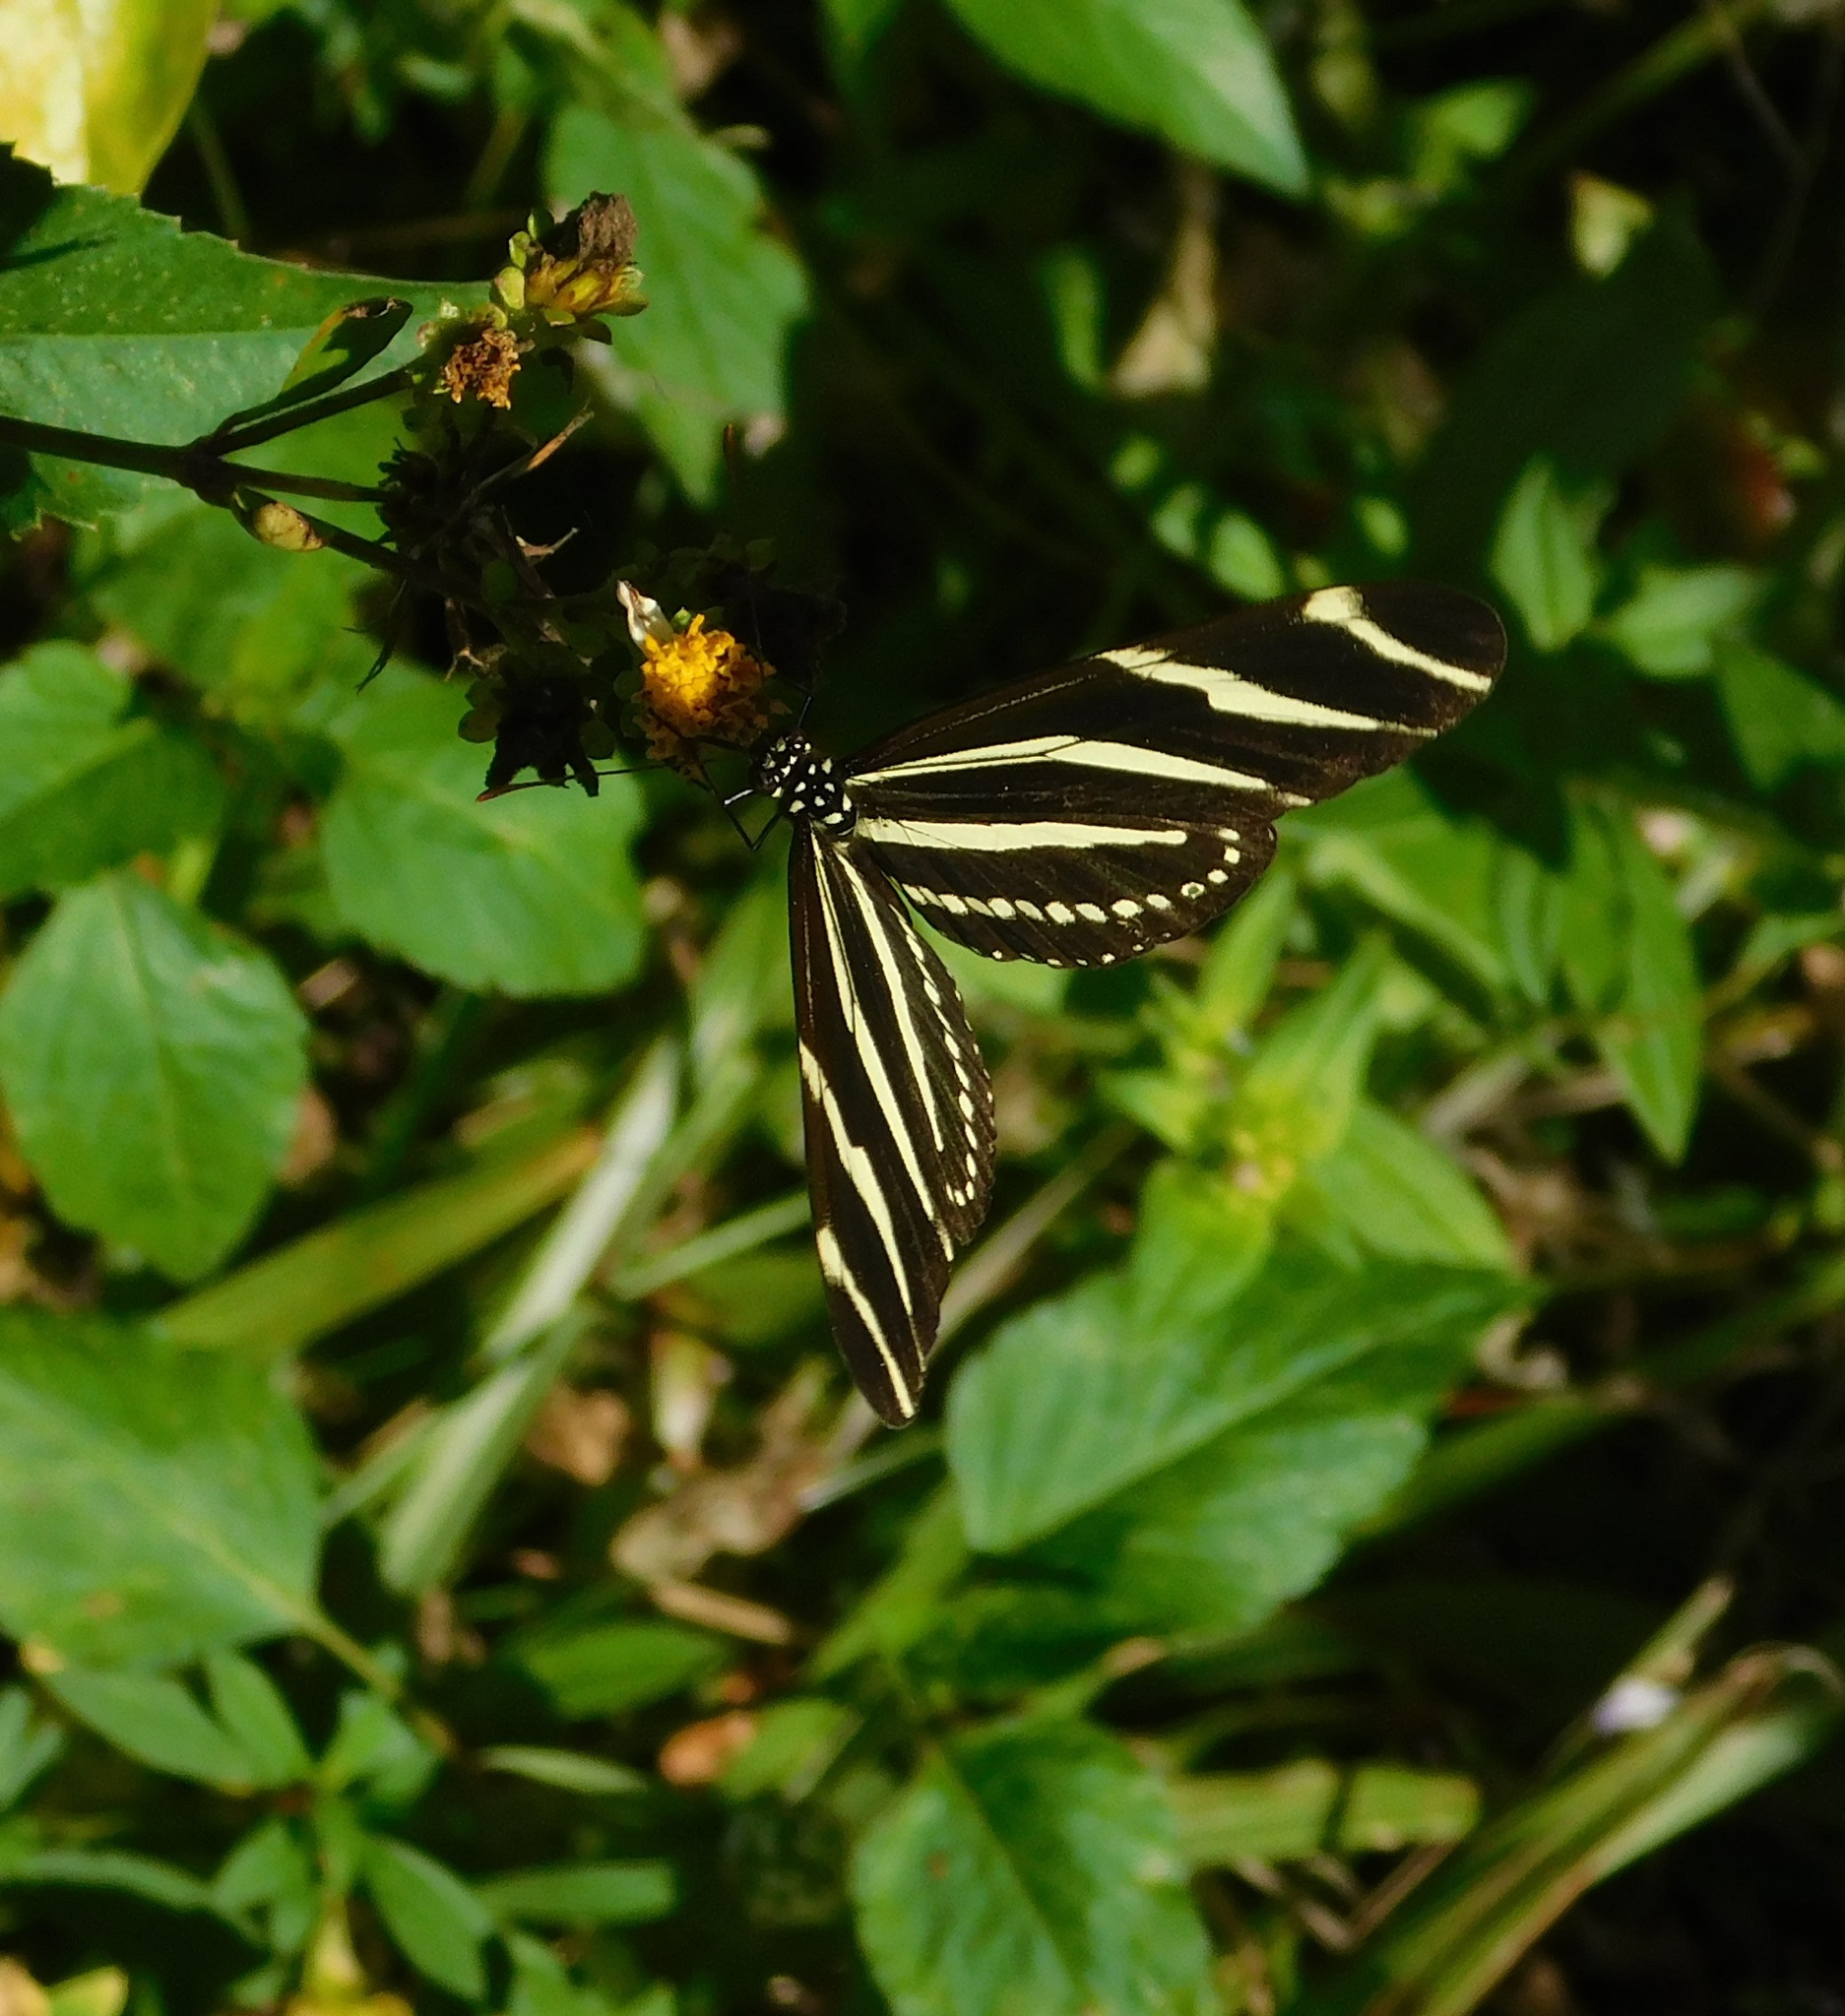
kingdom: Animalia
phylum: Arthropoda
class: Insecta
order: Lepidoptera
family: Nymphalidae
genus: Heliconius
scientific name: Heliconius charithonia
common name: Zebra long wing
